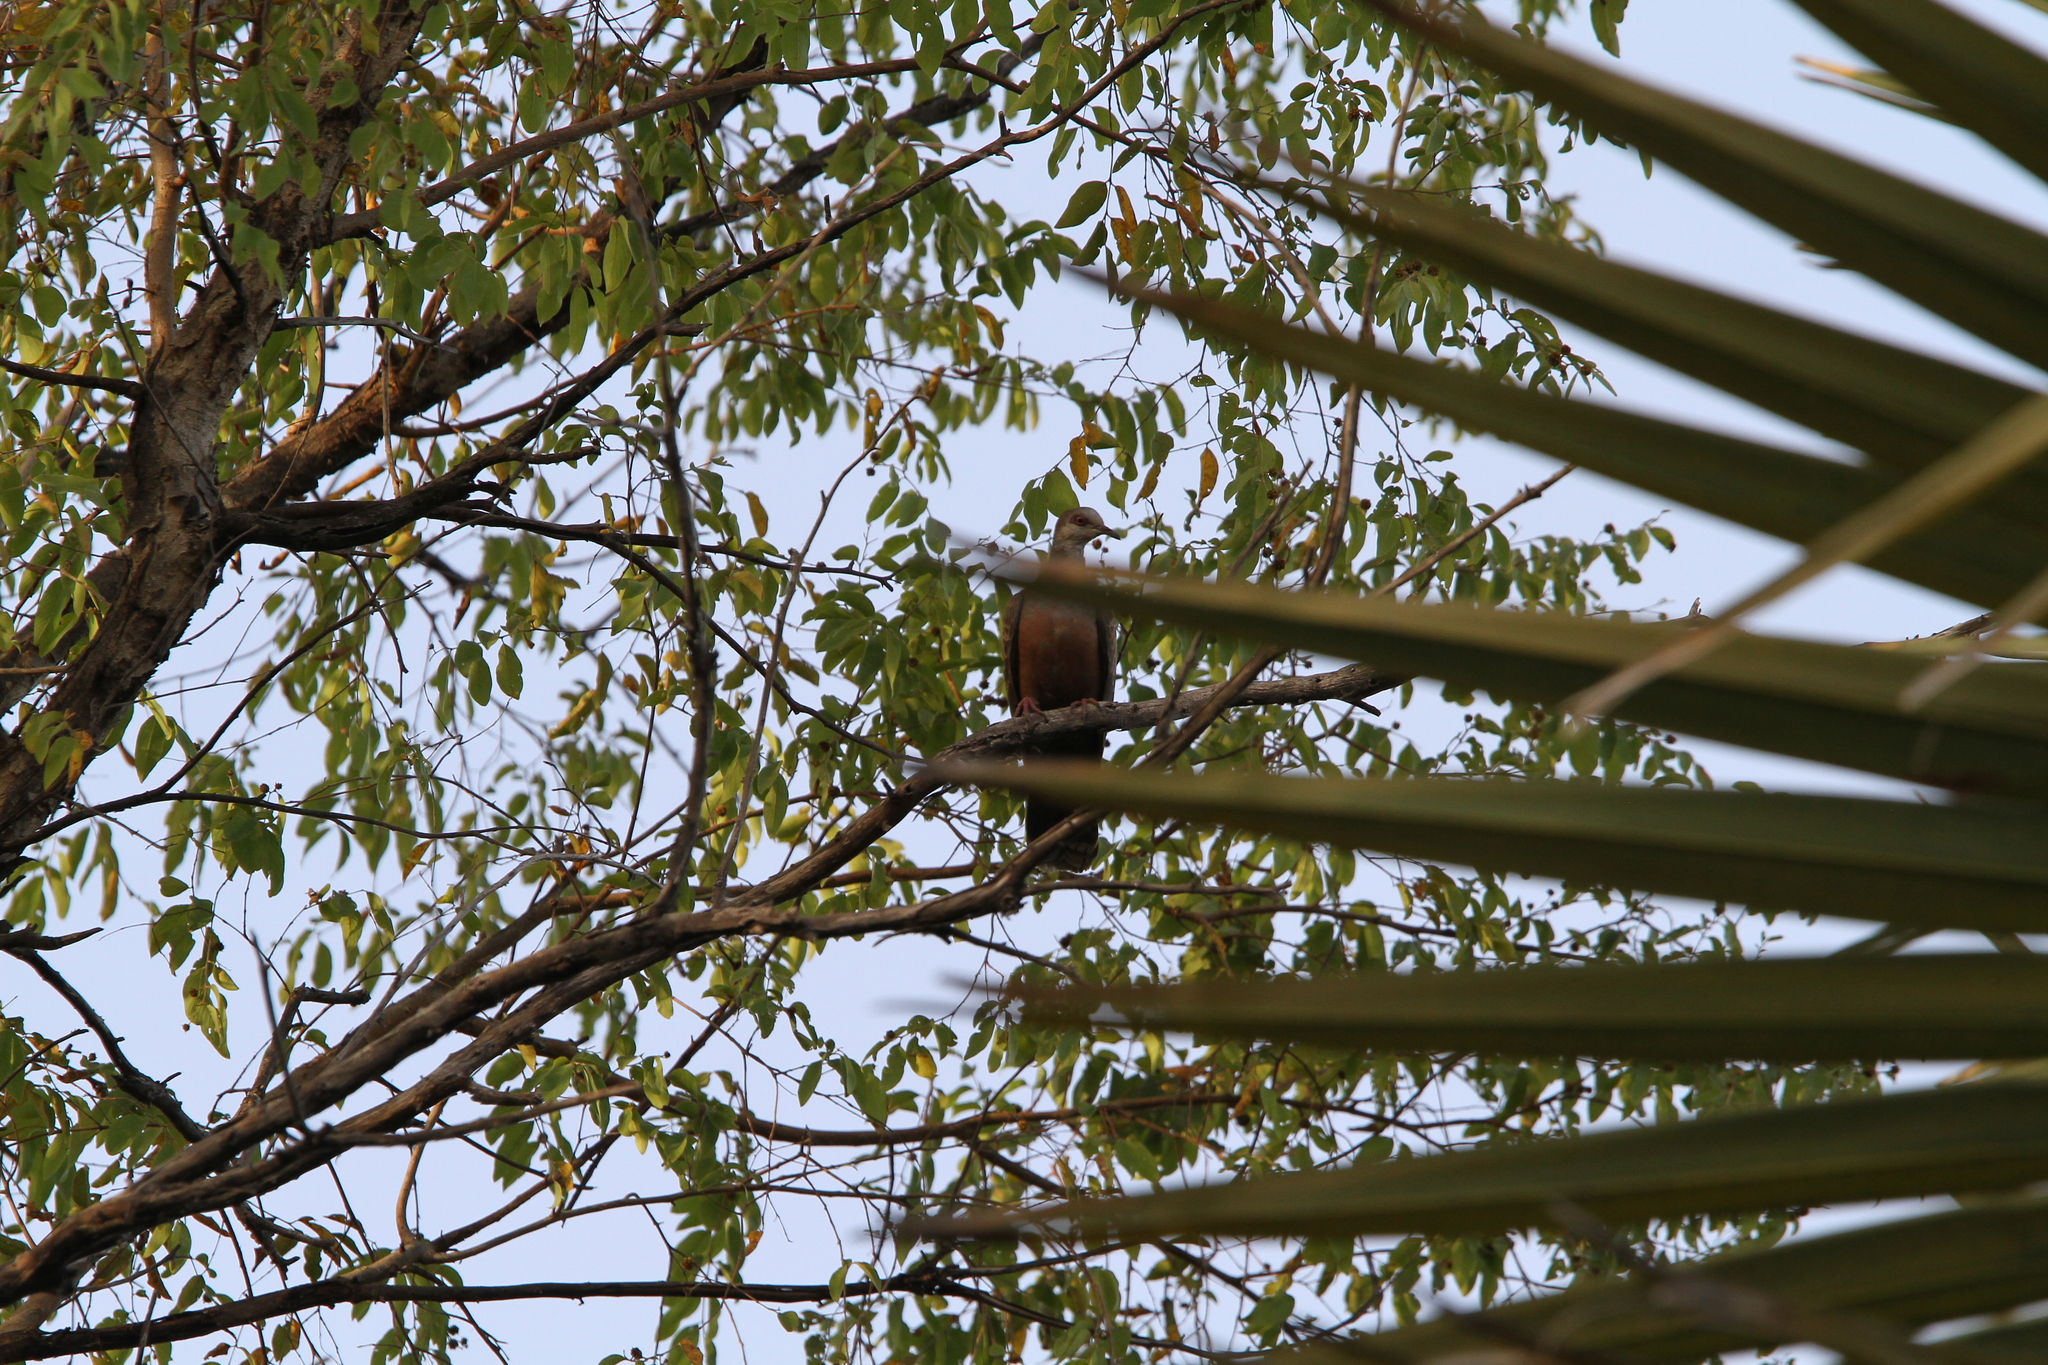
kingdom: Animalia
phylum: Chordata
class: Aves
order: Columbiformes
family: Columbidae
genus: Streptopelia
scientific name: Streptopelia hypopyrrha
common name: Adamawa turtle dove
